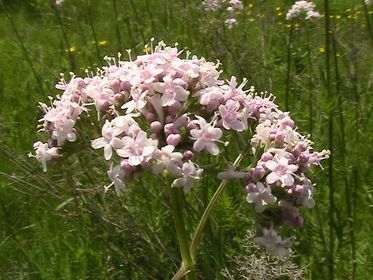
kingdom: Plantae
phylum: Tracheophyta
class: Magnoliopsida
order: Dipsacales
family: Caprifoliaceae
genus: Valeriana
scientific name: Valeriana officinalis
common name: Common valerian
